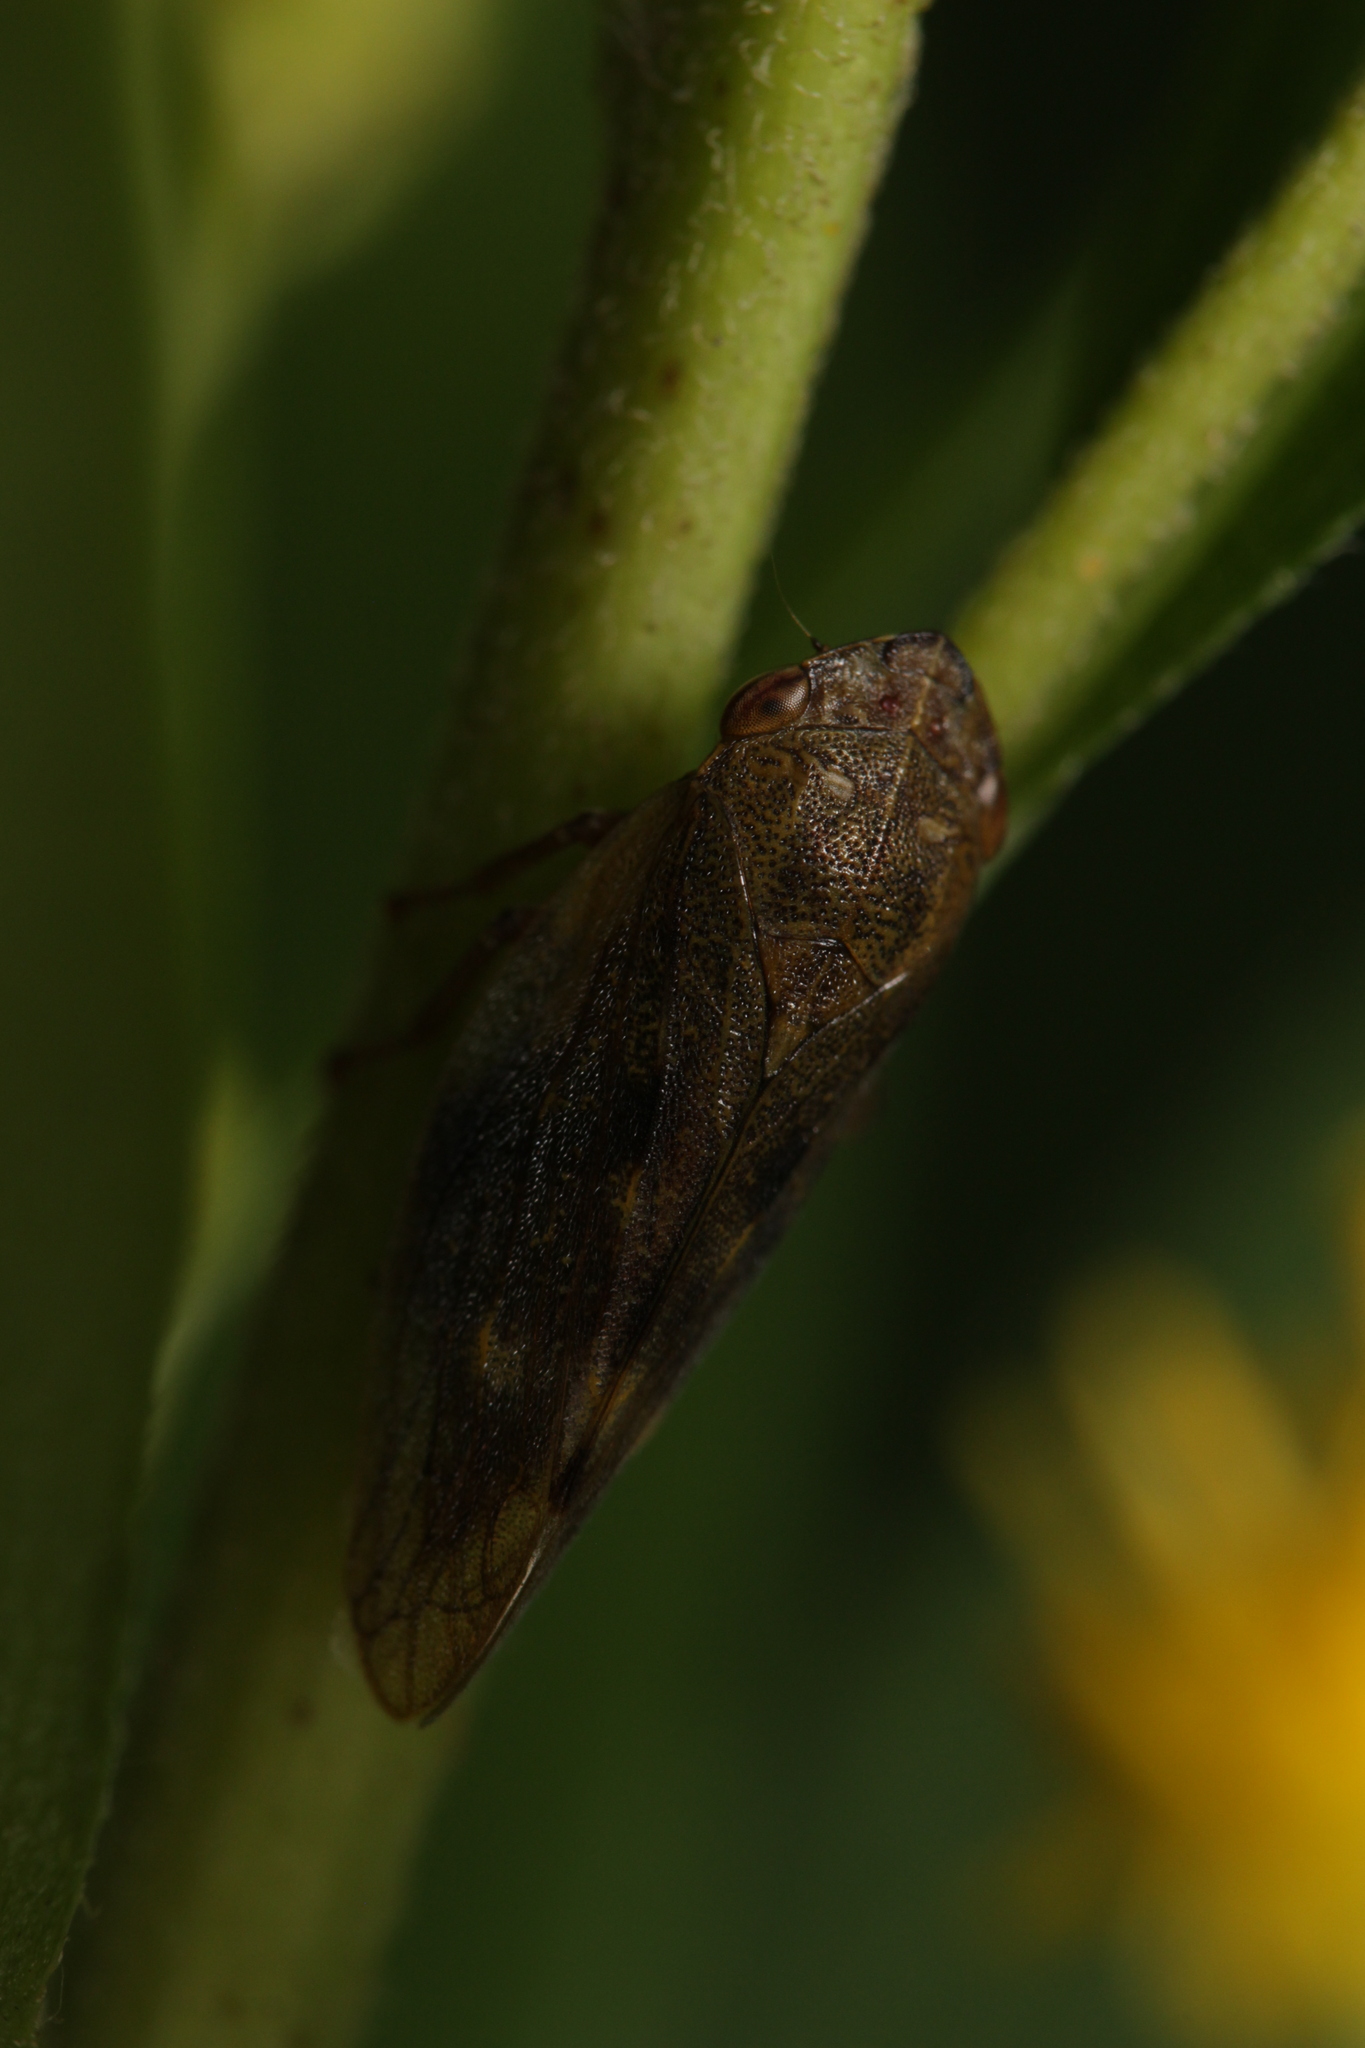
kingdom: Animalia
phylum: Arthropoda
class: Insecta
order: Hemiptera
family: Aphrophoridae
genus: Omalophora
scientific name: Omalophora pectoralis
